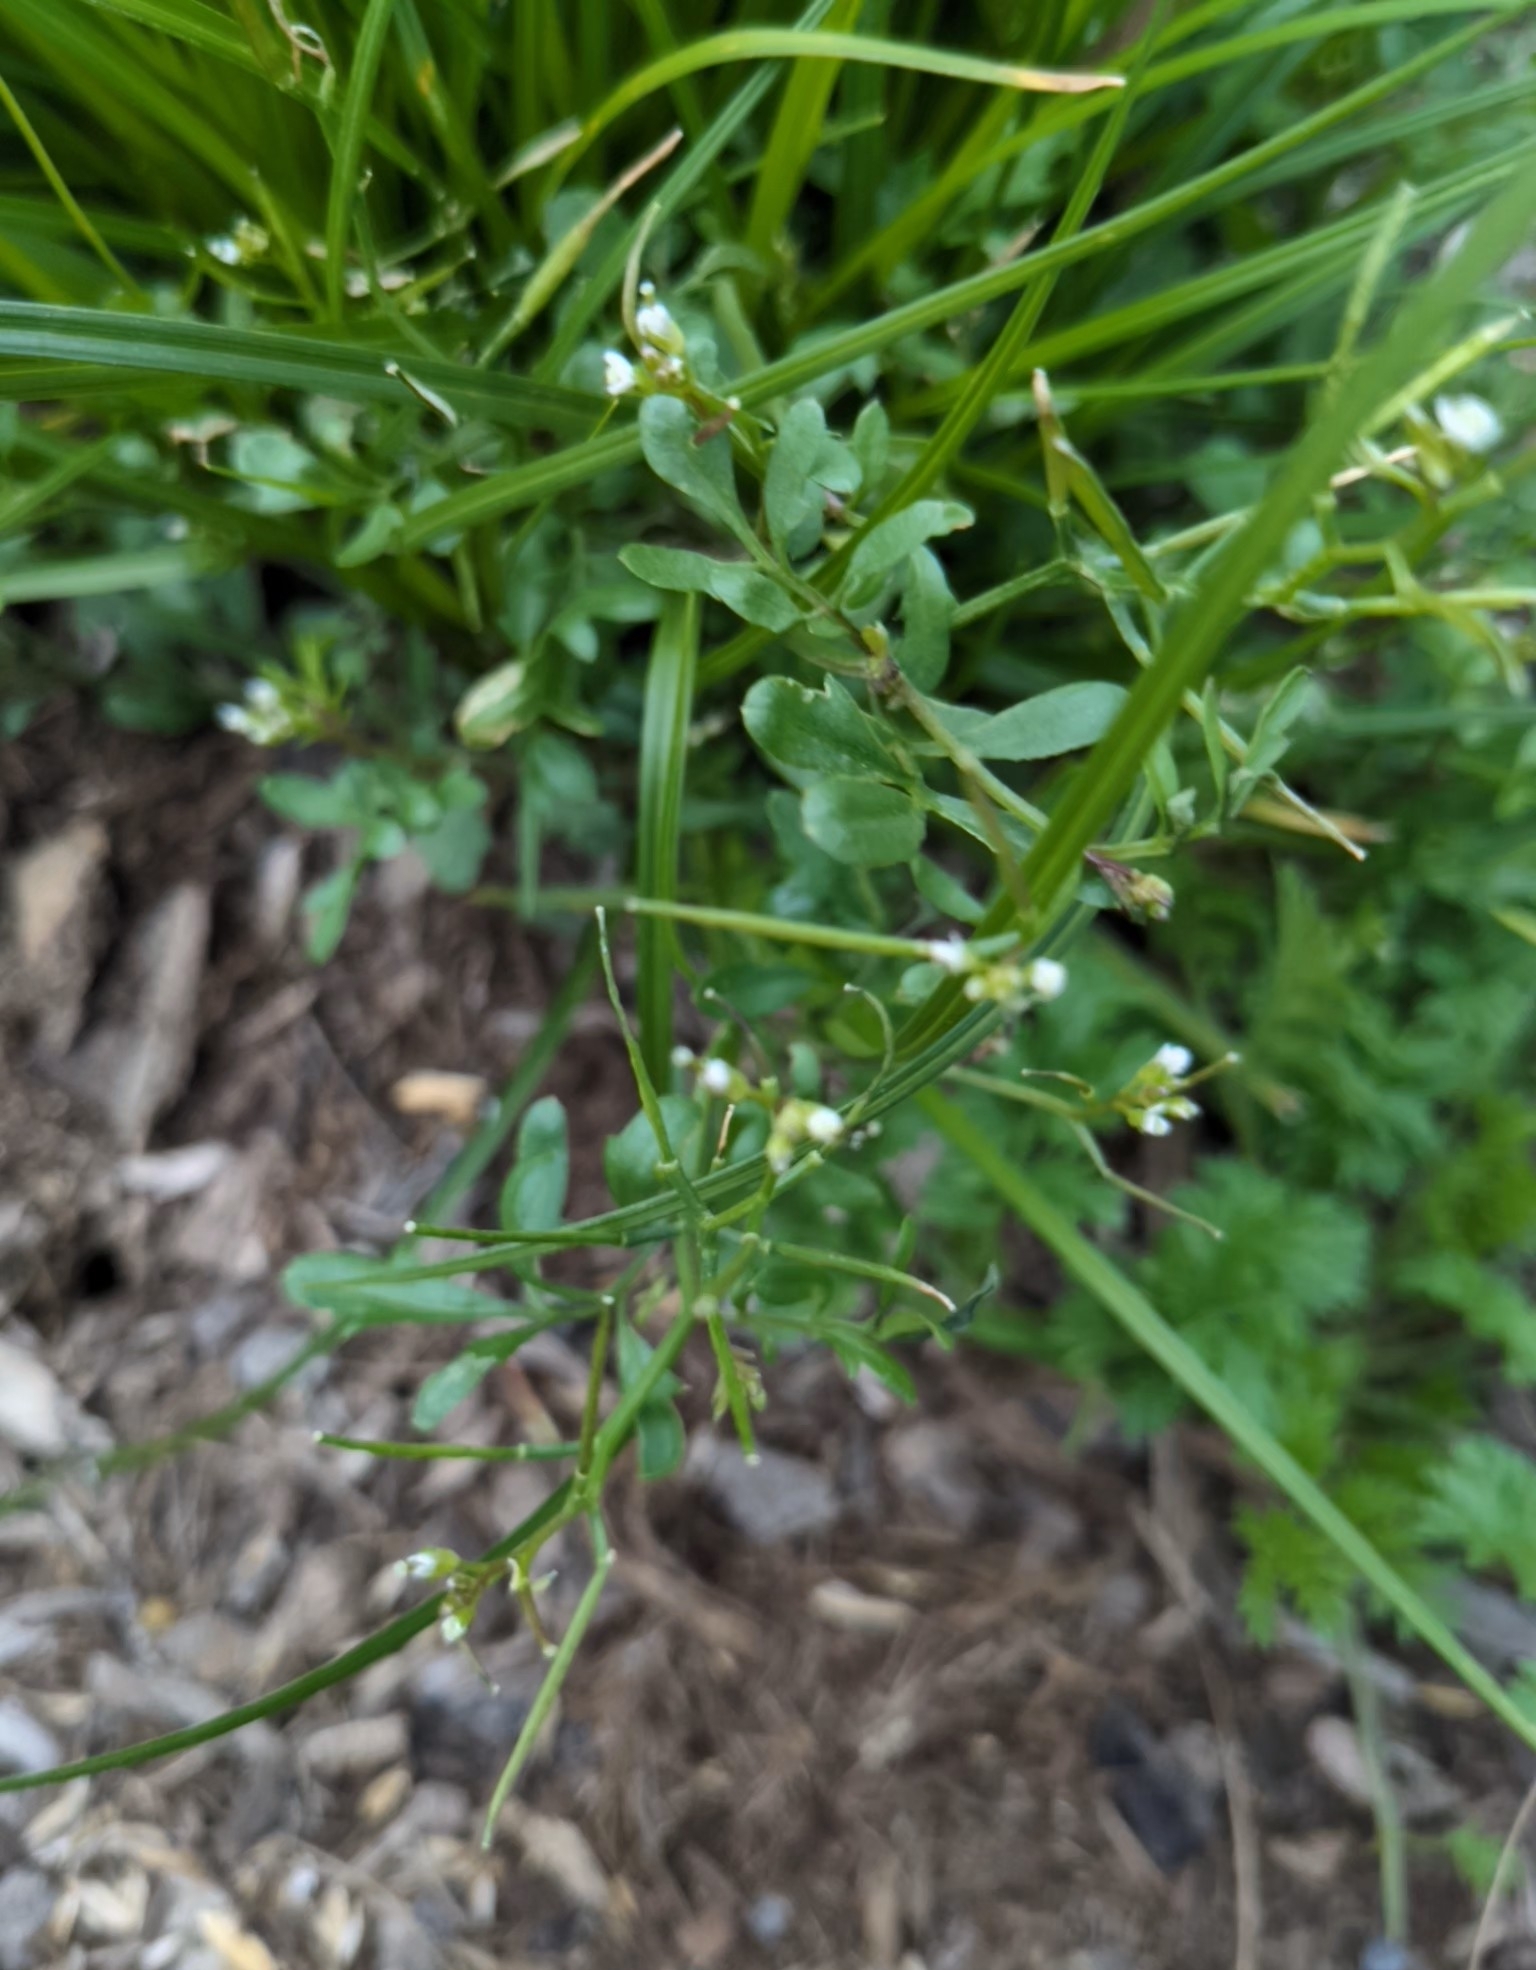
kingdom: Plantae
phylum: Tracheophyta
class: Magnoliopsida
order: Brassicales
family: Brassicaceae
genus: Cardamine
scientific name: Cardamine hirsuta
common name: Hairy bittercress
